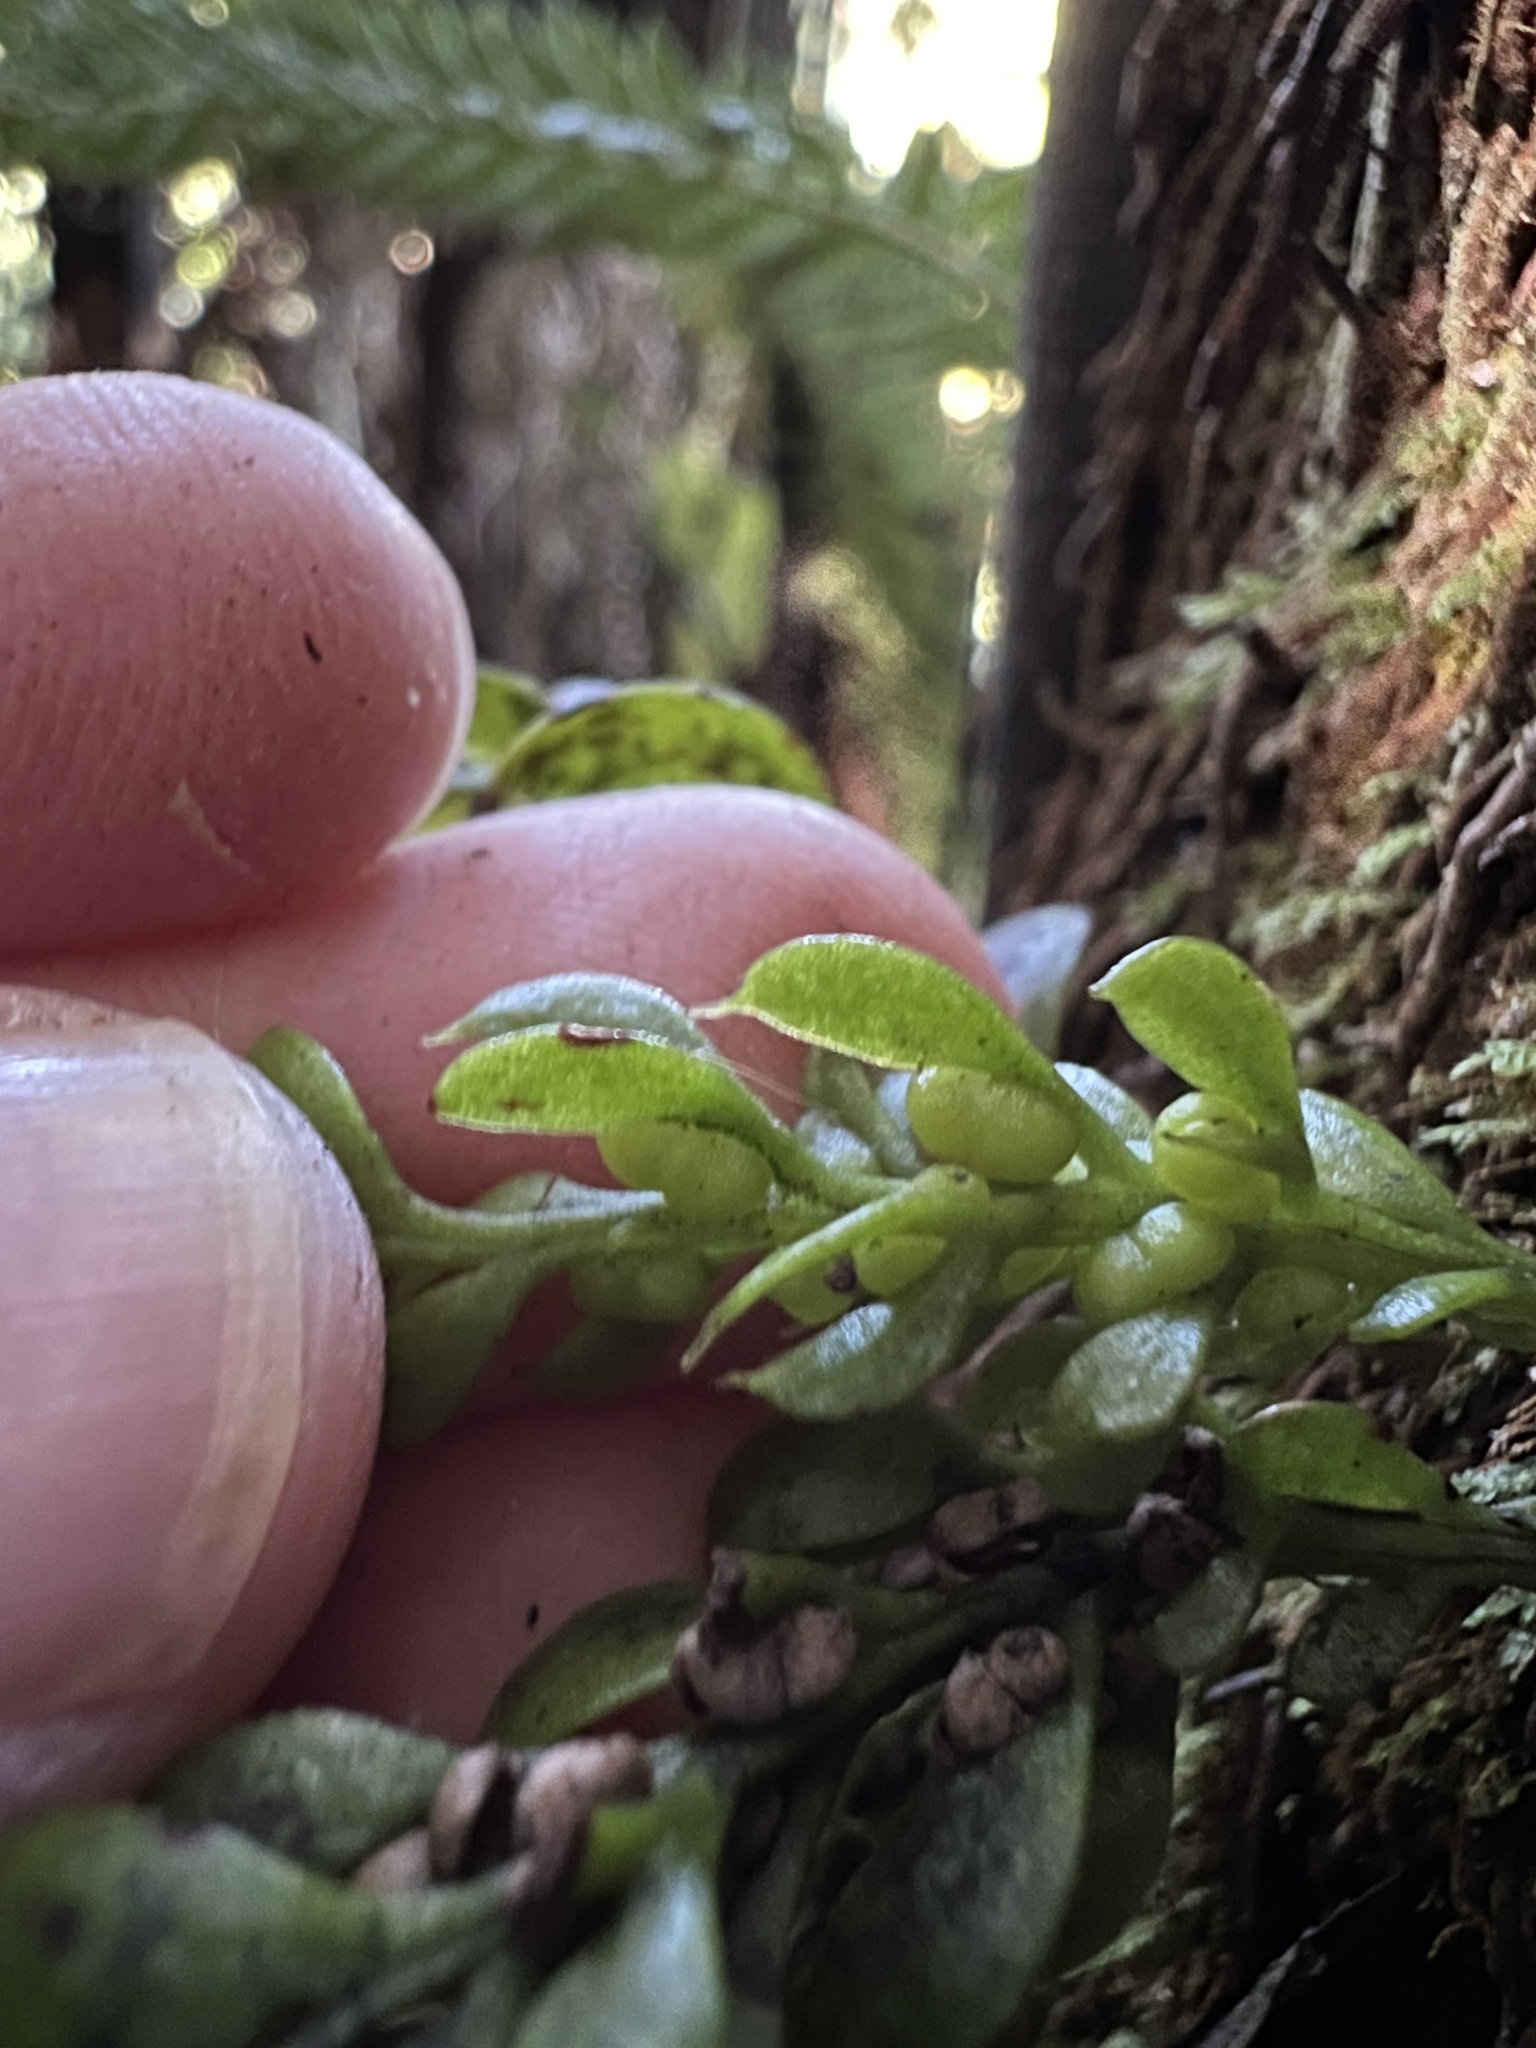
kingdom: Plantae
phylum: Tracheophyta
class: Polypodiopsida
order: Psilotales
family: Psilotaceae
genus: Tmesipteris
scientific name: Tmesipteris lanceolata
